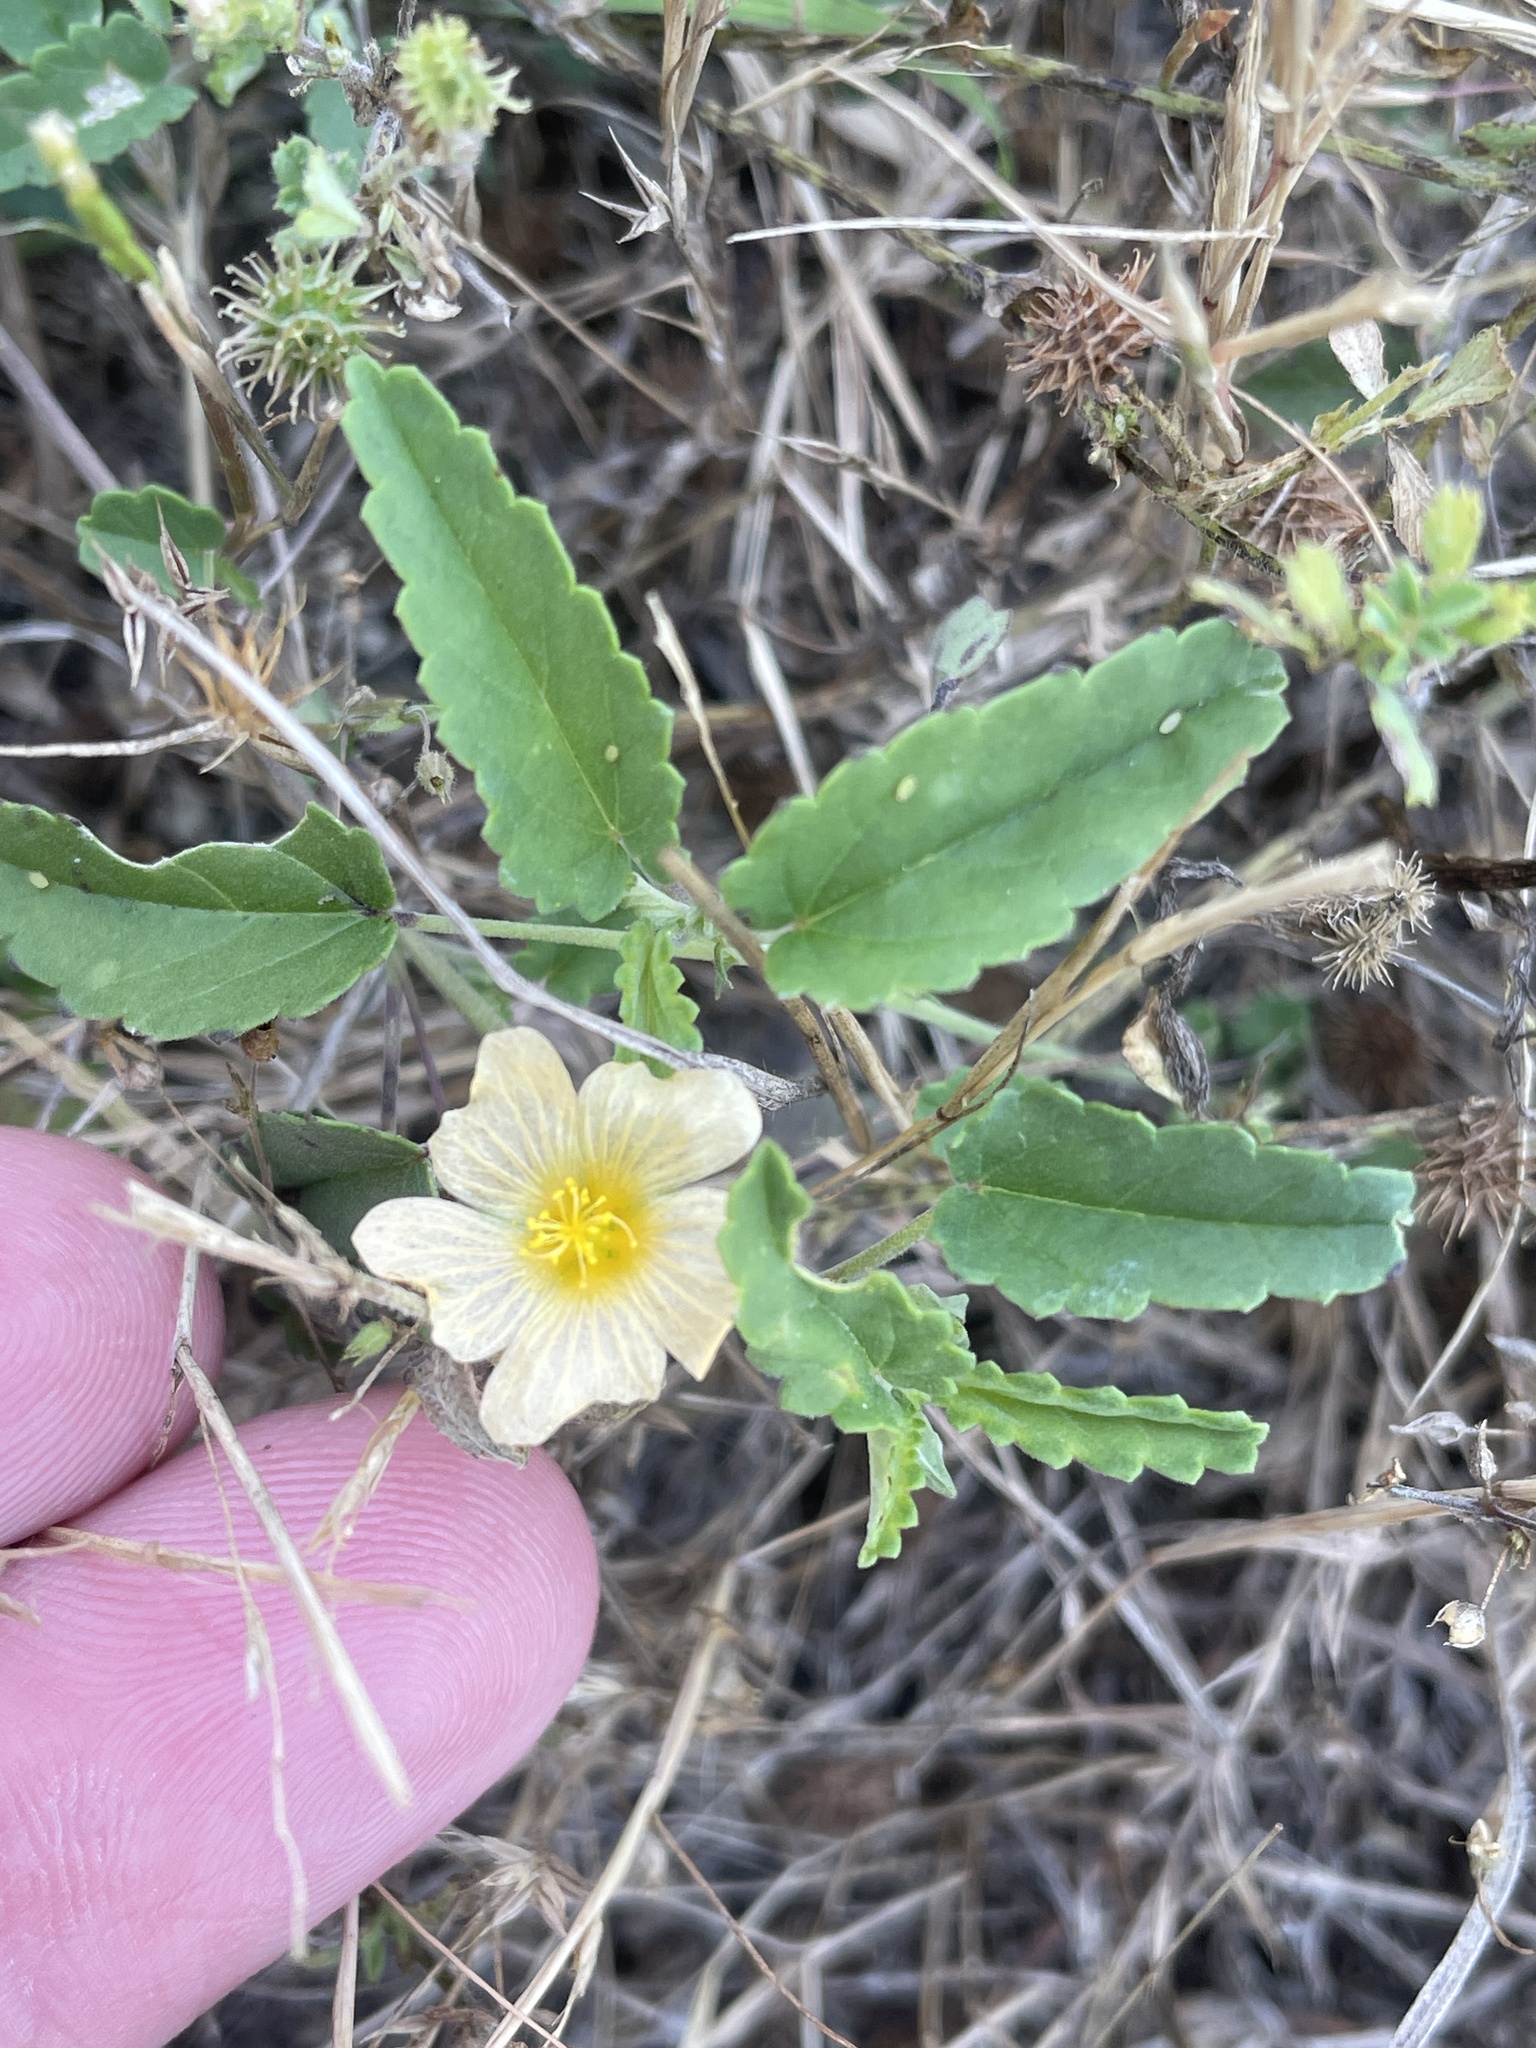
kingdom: Plantae
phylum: Tracheophyta
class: Magnoliopsida
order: Malvales
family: Malvaceae
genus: Sida
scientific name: Sida abutilifolia
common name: Spreading fanpetals
